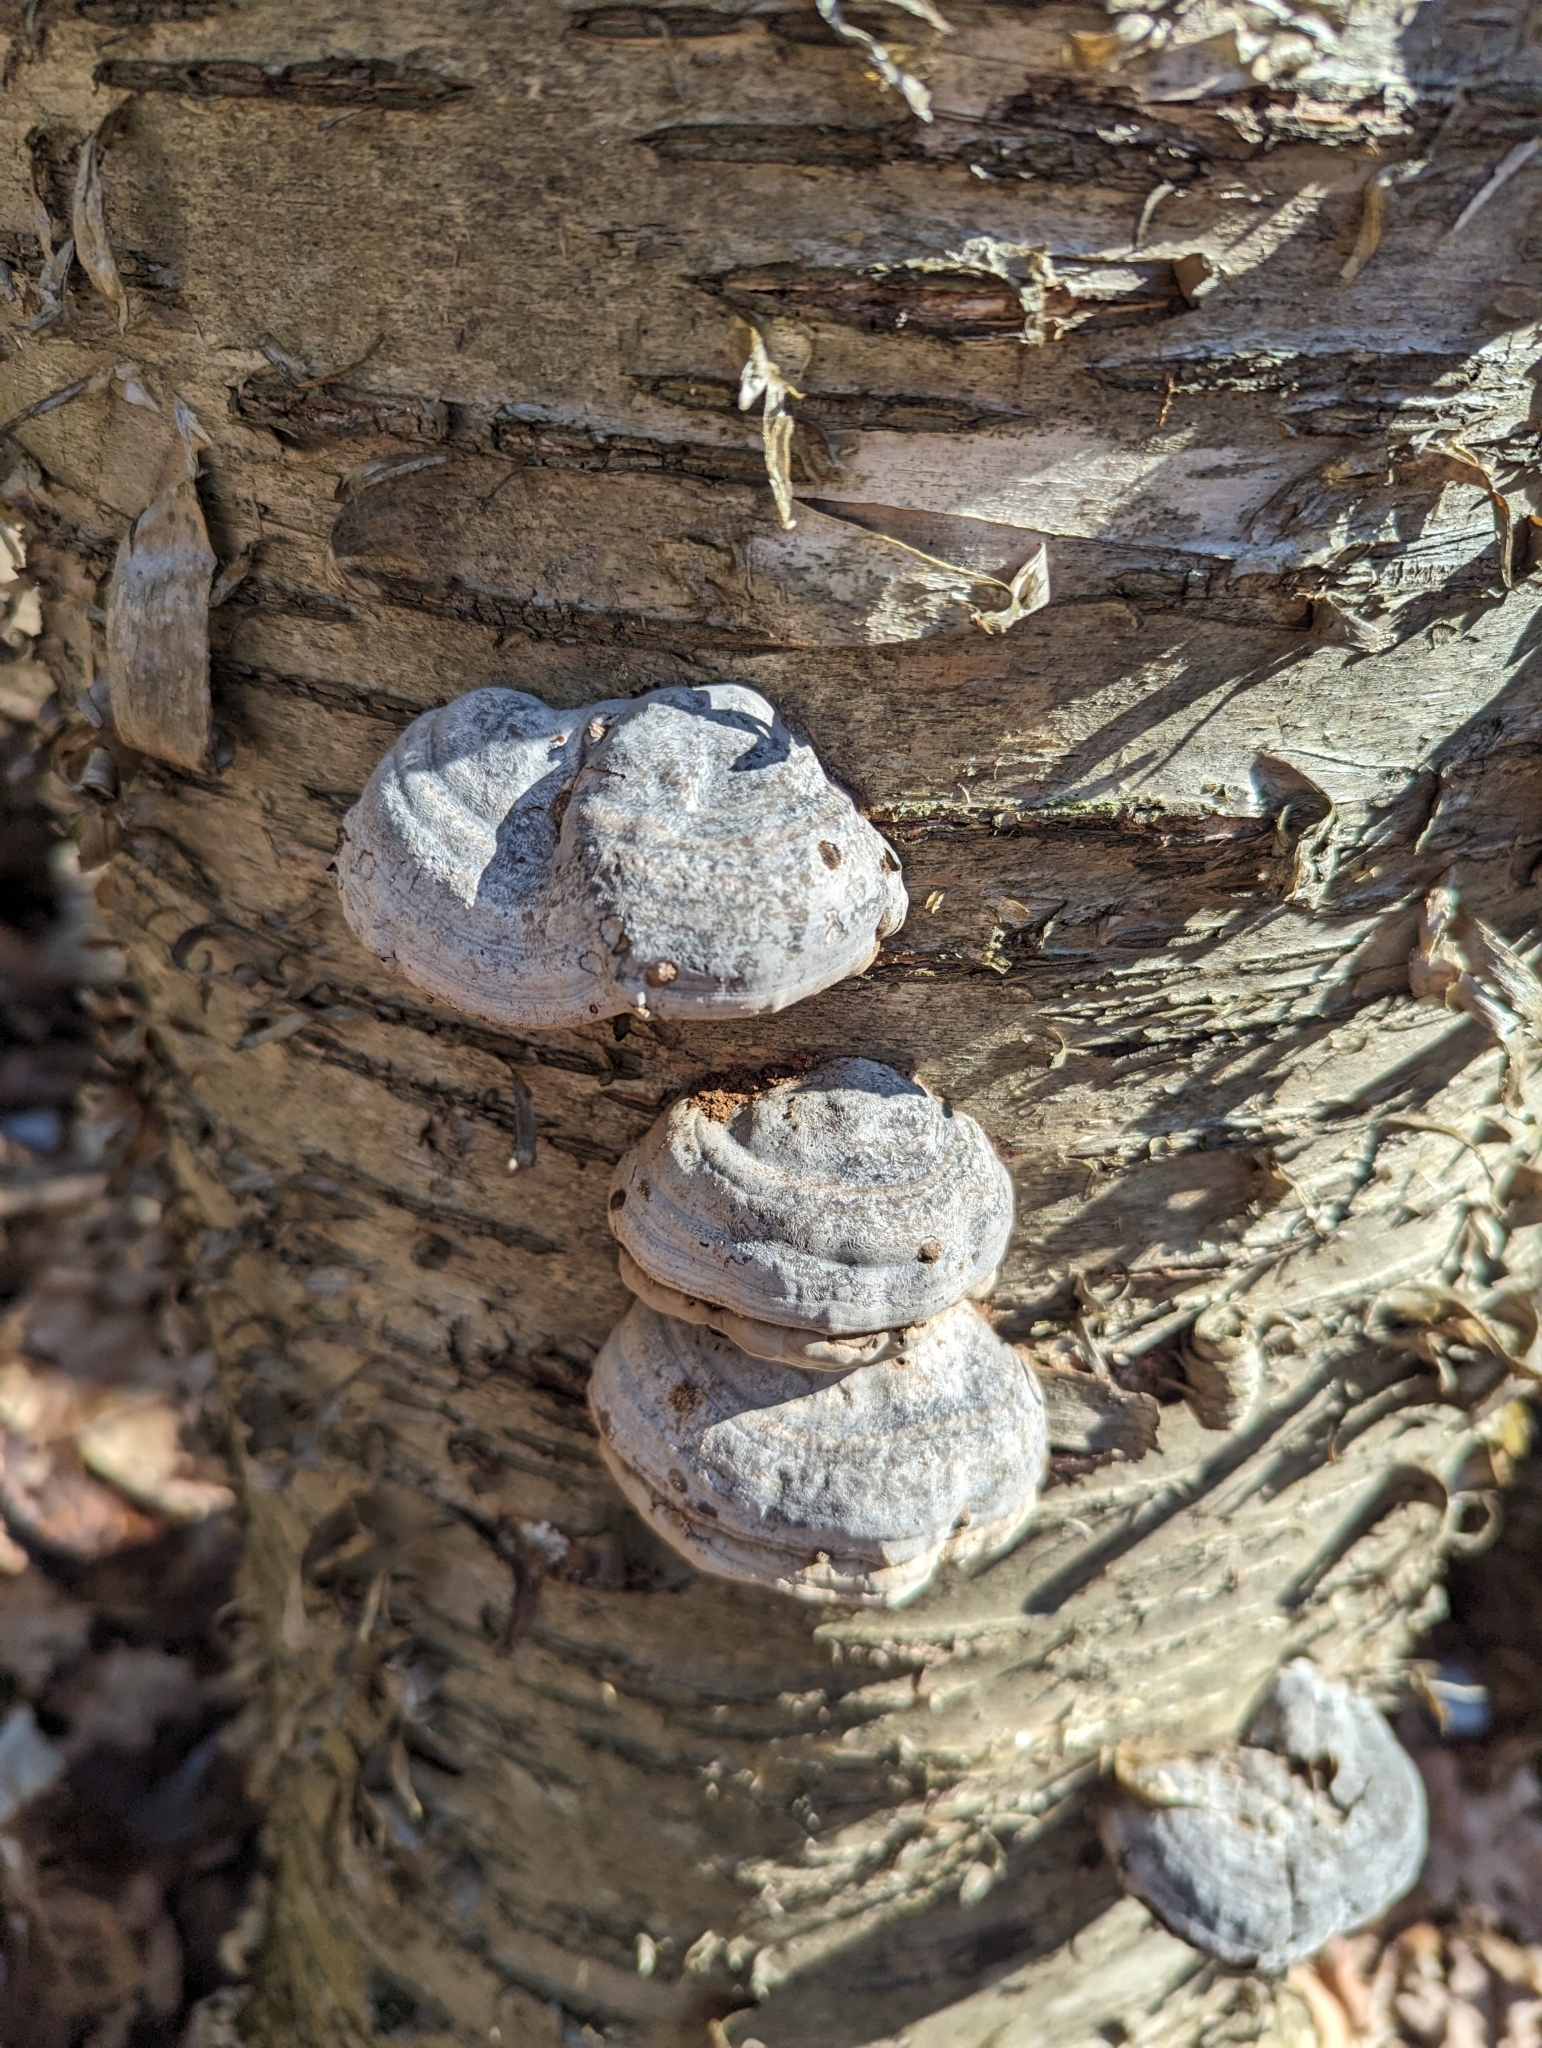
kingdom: Fungi
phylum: Basidiomycota
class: Agaricomycetes
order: Polyporales
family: Polyporaceae
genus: Fomes
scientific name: Fomes fomentarius
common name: Hoof fungus
